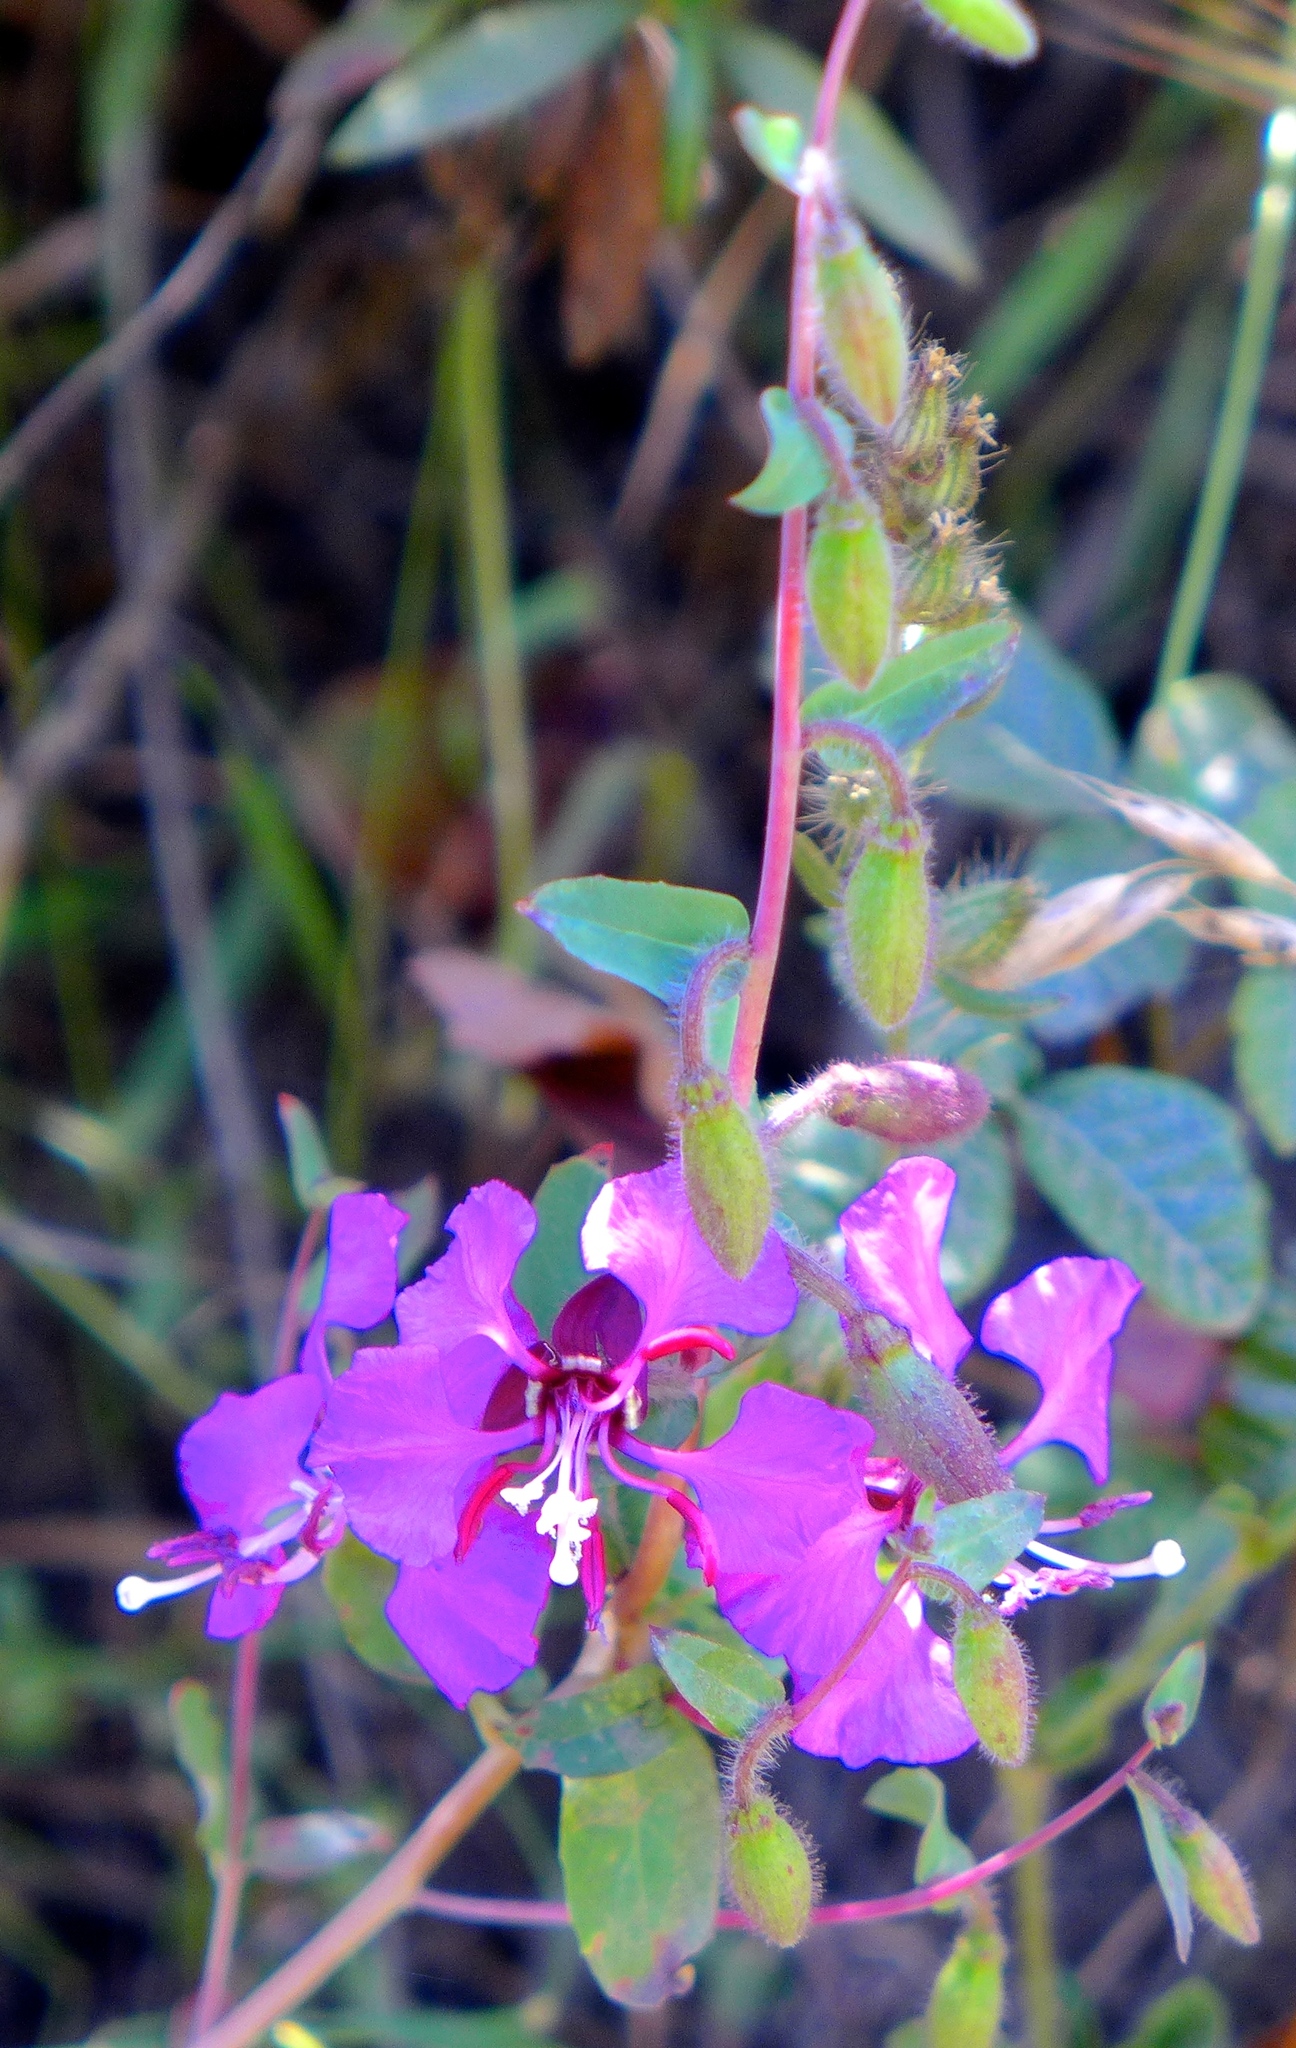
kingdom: Plantae
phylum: Tracheophyta
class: Magnoliopsida
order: Myrtales
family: Onagraceae
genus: Clarkia
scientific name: Clarkia unguiculata
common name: Clarkia
